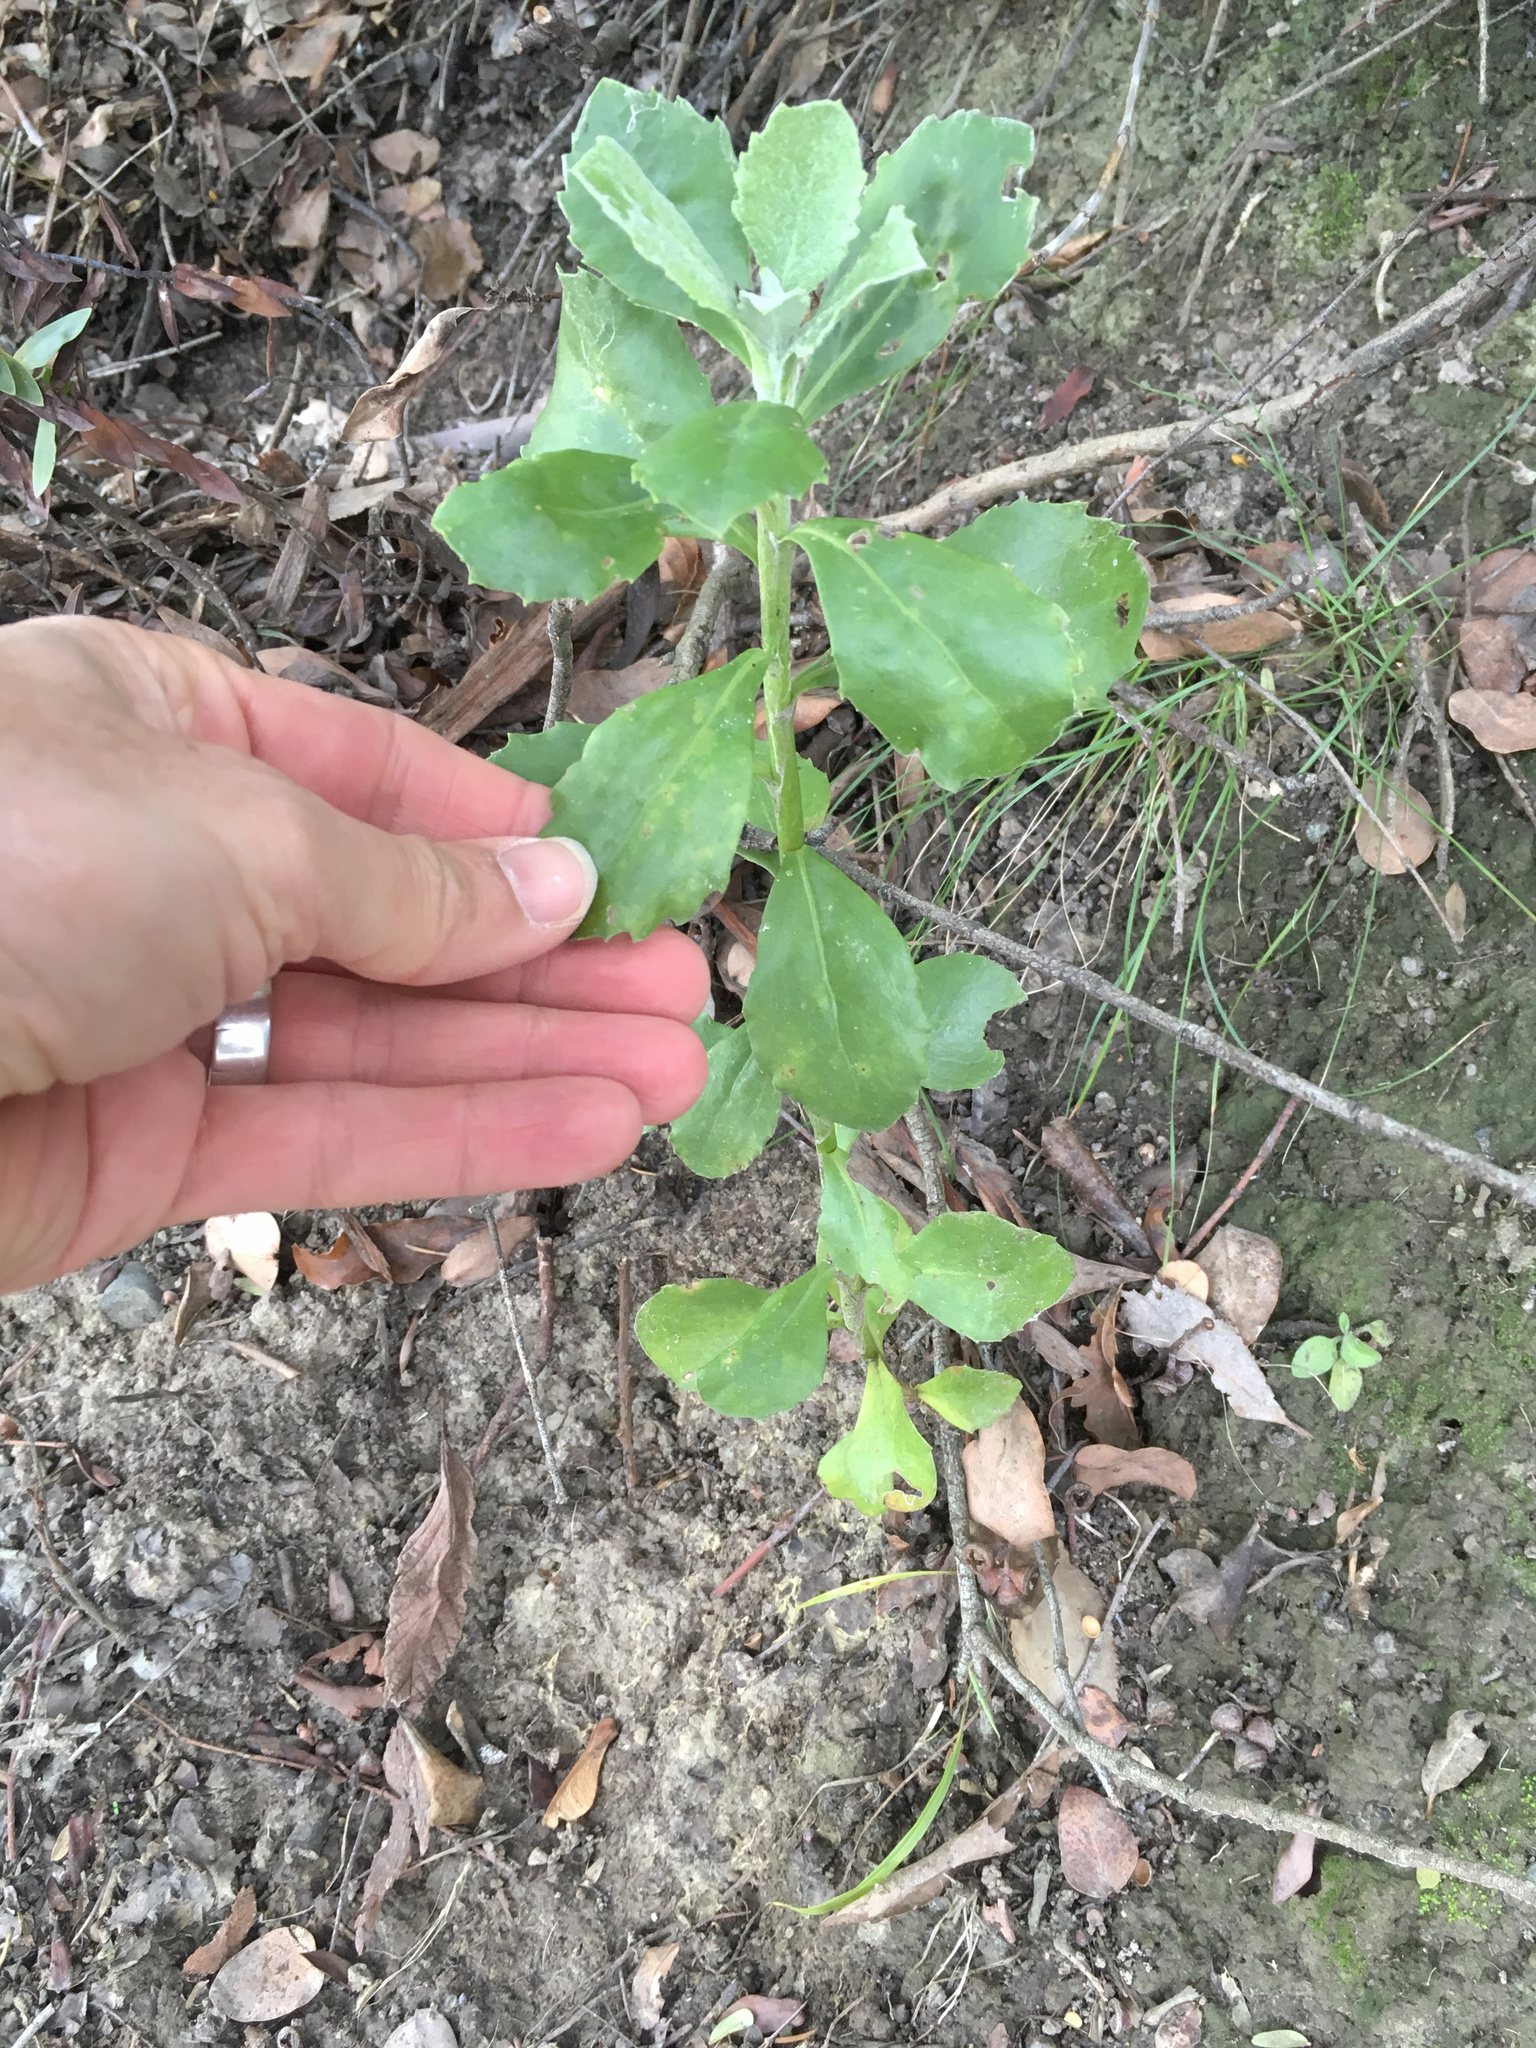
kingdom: Plantae
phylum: Tracheophyta
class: Magnoliopsida
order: Asterales
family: Asteraceae
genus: Osteospermum
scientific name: Osteospermum moniliferum
